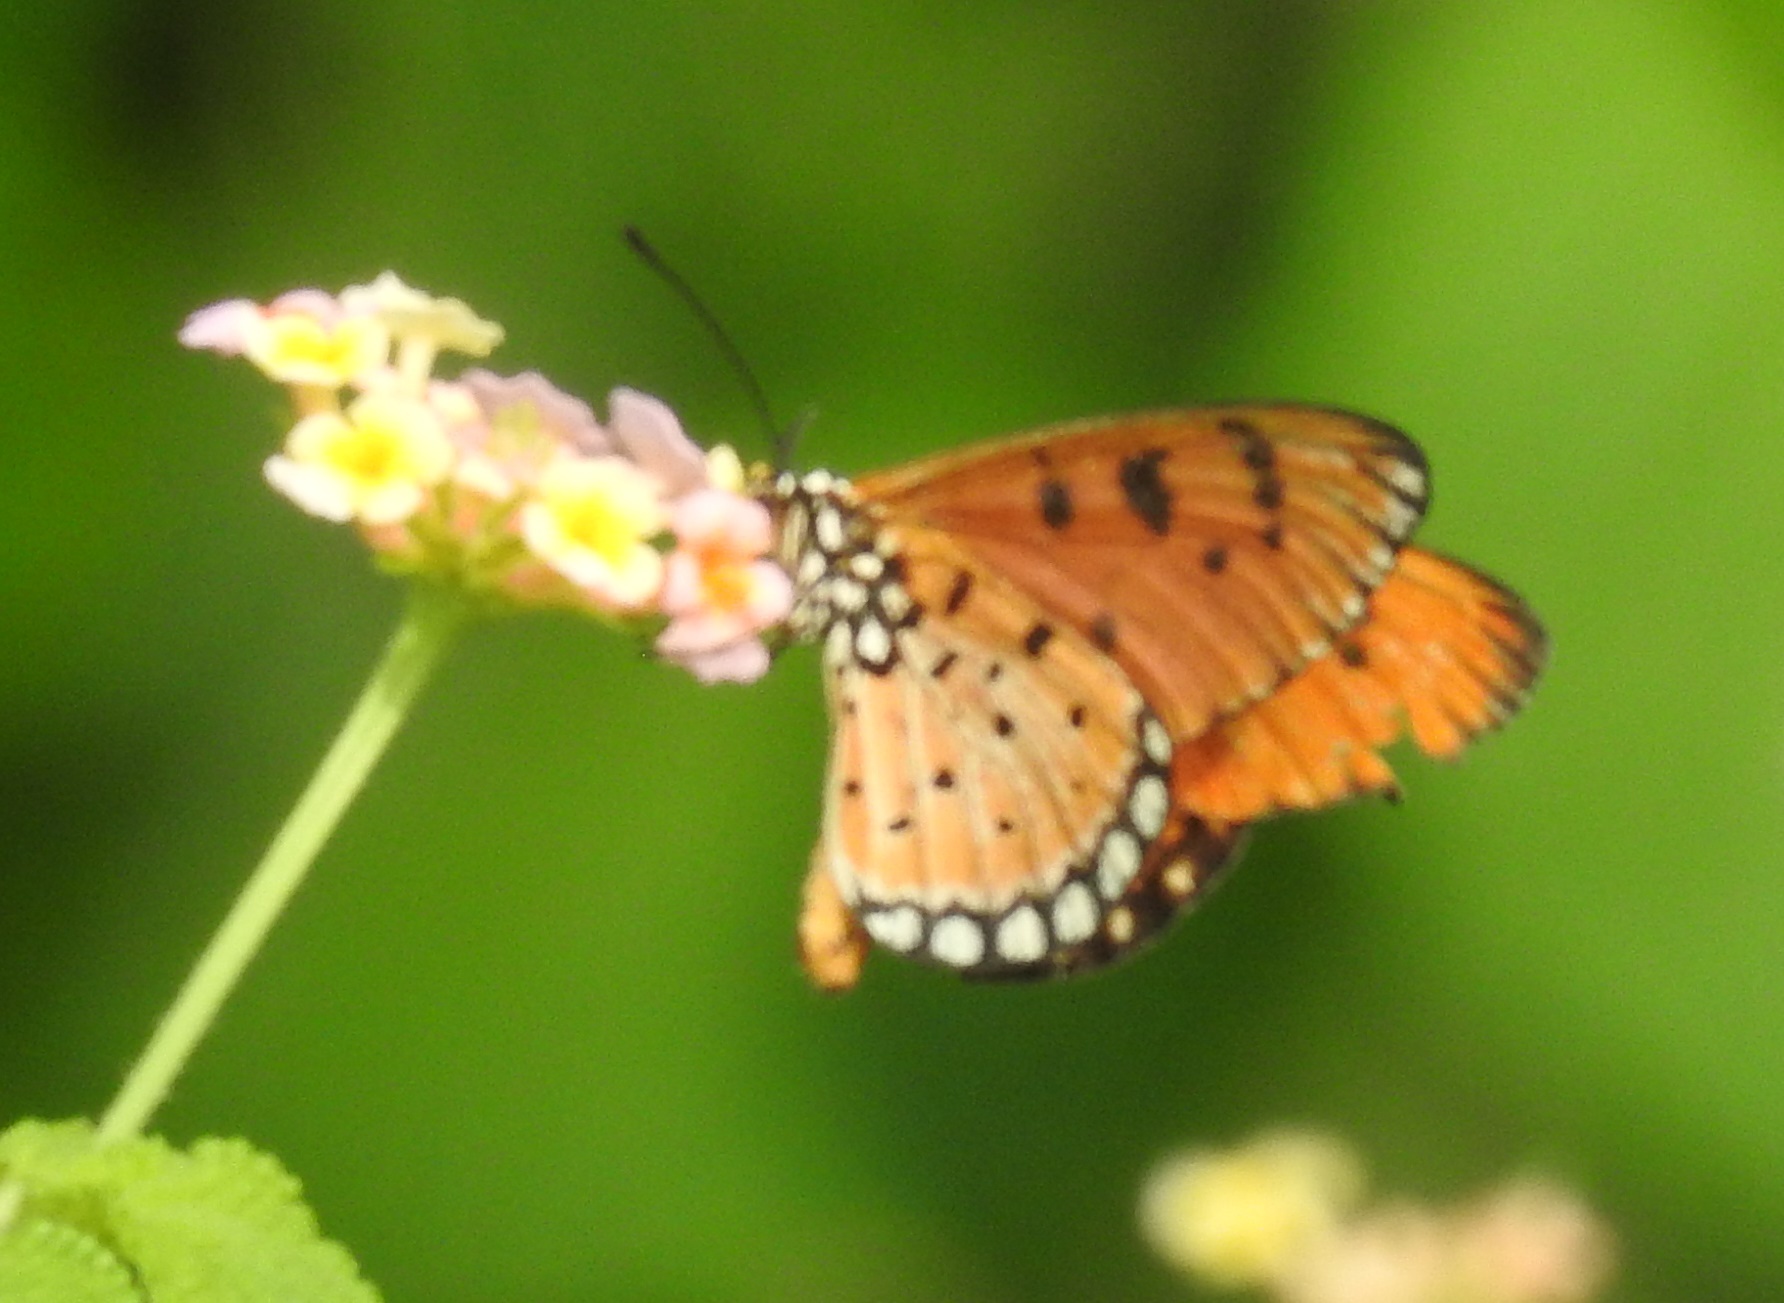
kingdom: Animalia
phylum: Arthropoda
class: Insecta
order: Lepidoptera
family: Nymphalidae
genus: Acraea
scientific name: Acraea terpsicore
